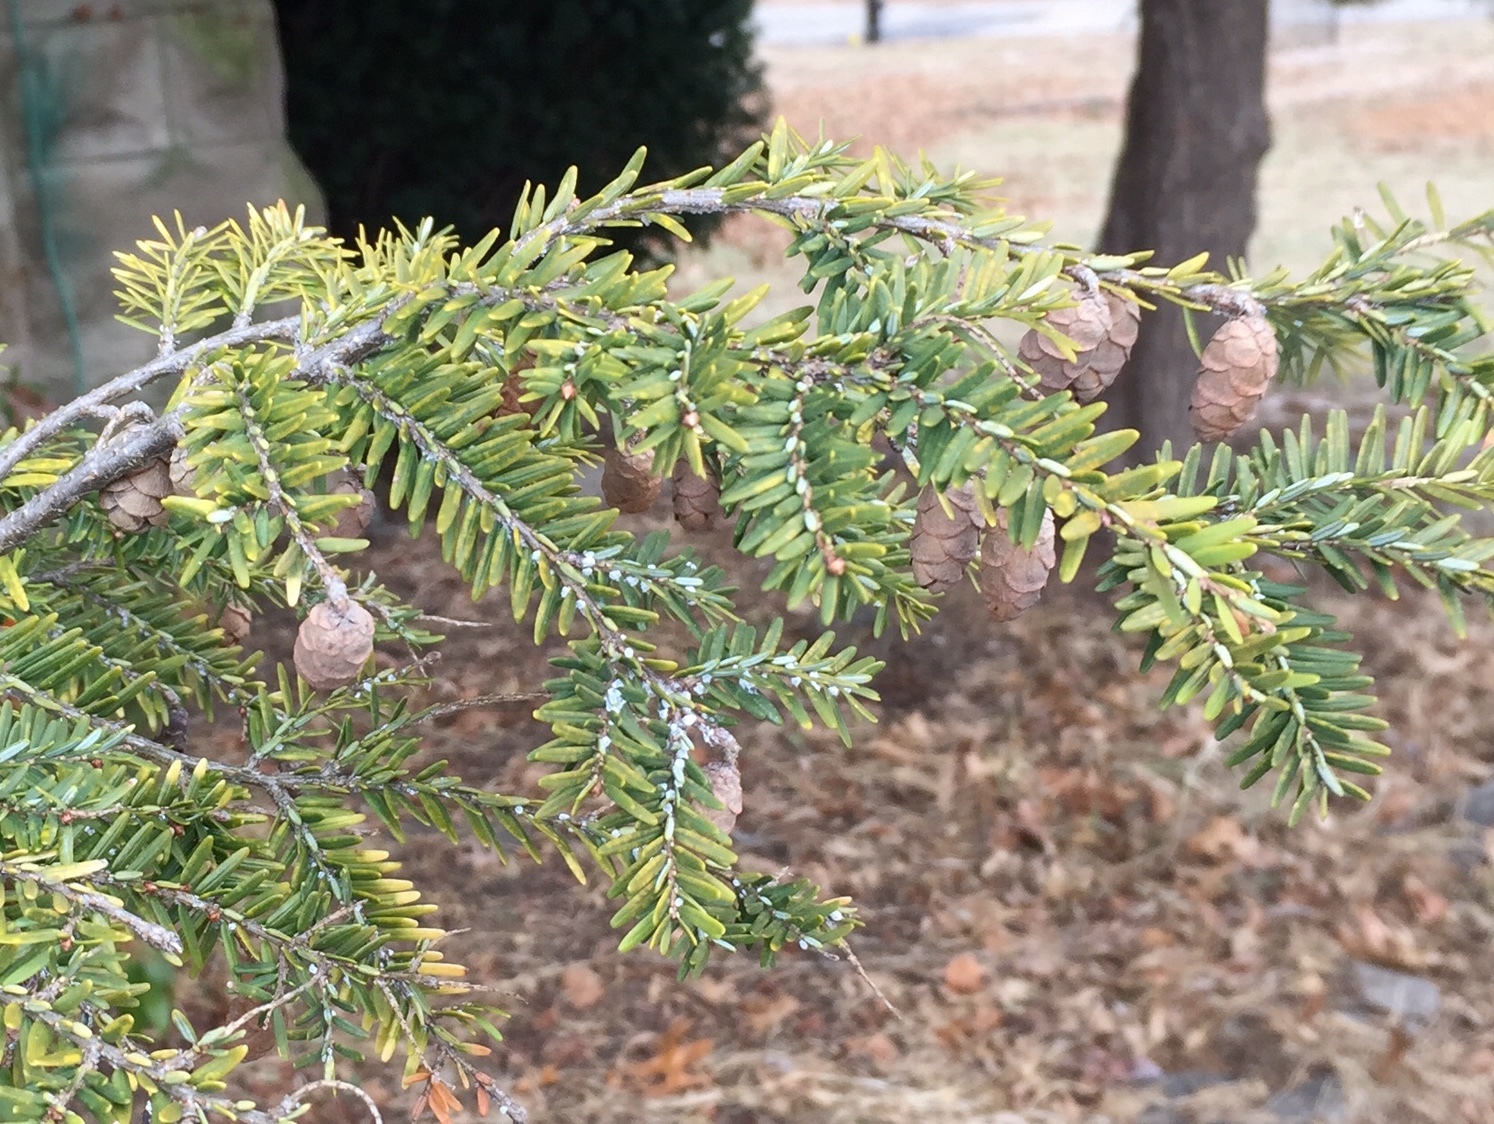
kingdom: Animalia
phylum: Arthropoda
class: Insecta
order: Hemiptera
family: Adelgidae
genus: Adelges
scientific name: Adelges tsugae
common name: Hemlock woolly adelgid
